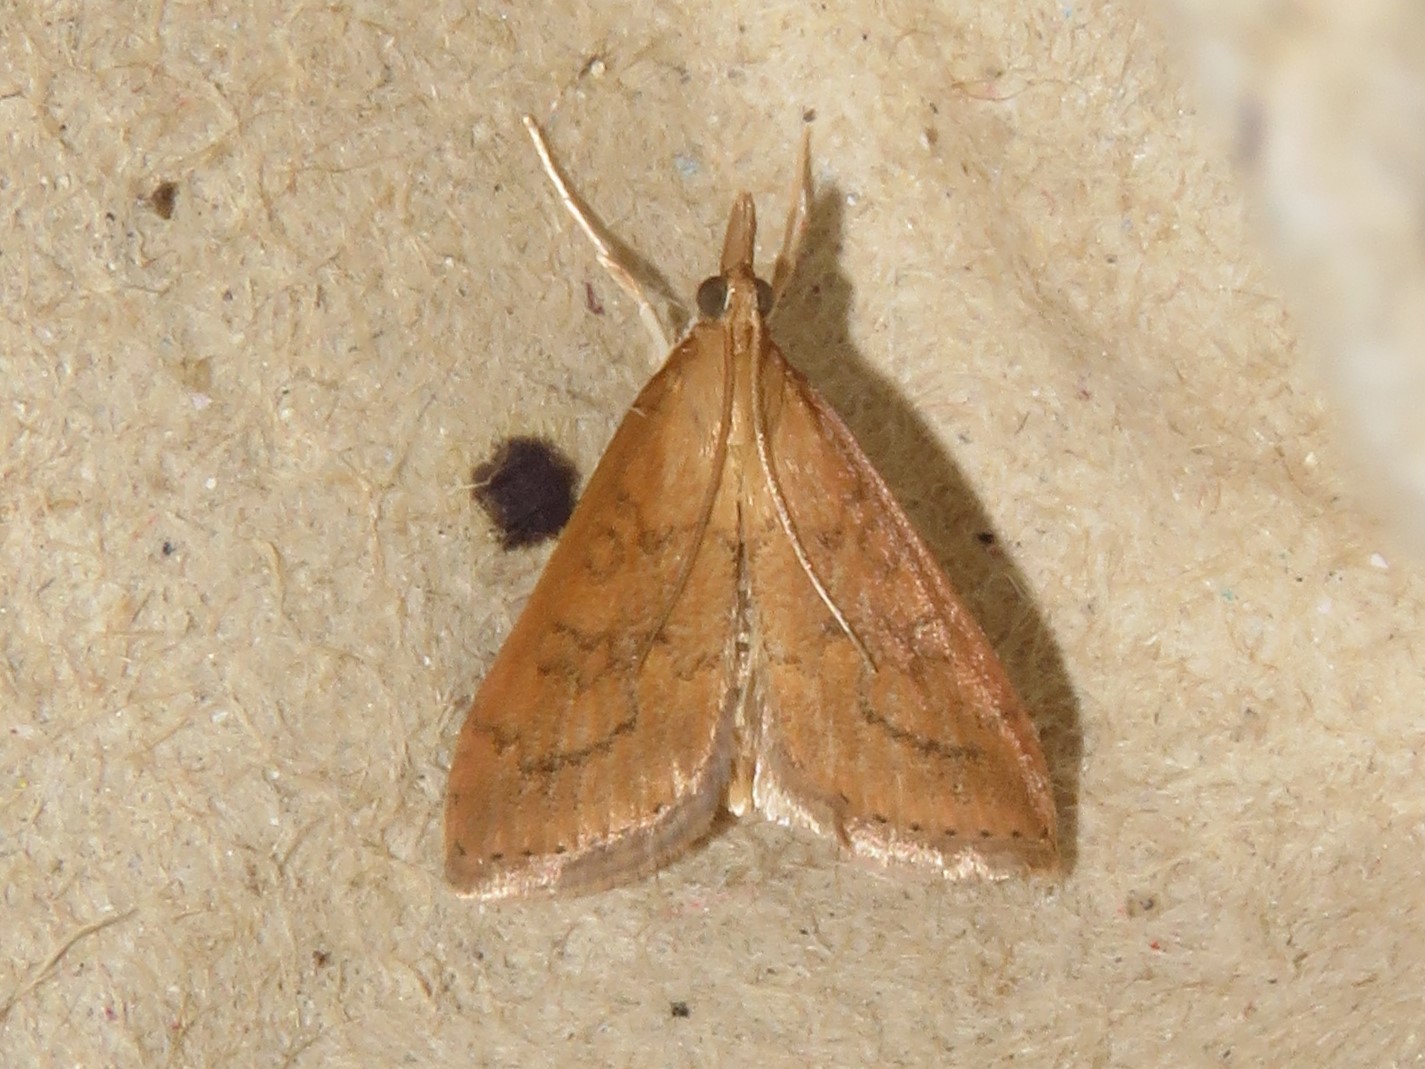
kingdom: Animalia
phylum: Arthropoda
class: Insecta
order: Lepidoptera
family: Crambidae
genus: Udea
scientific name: Udea rubigalis
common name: Celery leaftier moth
